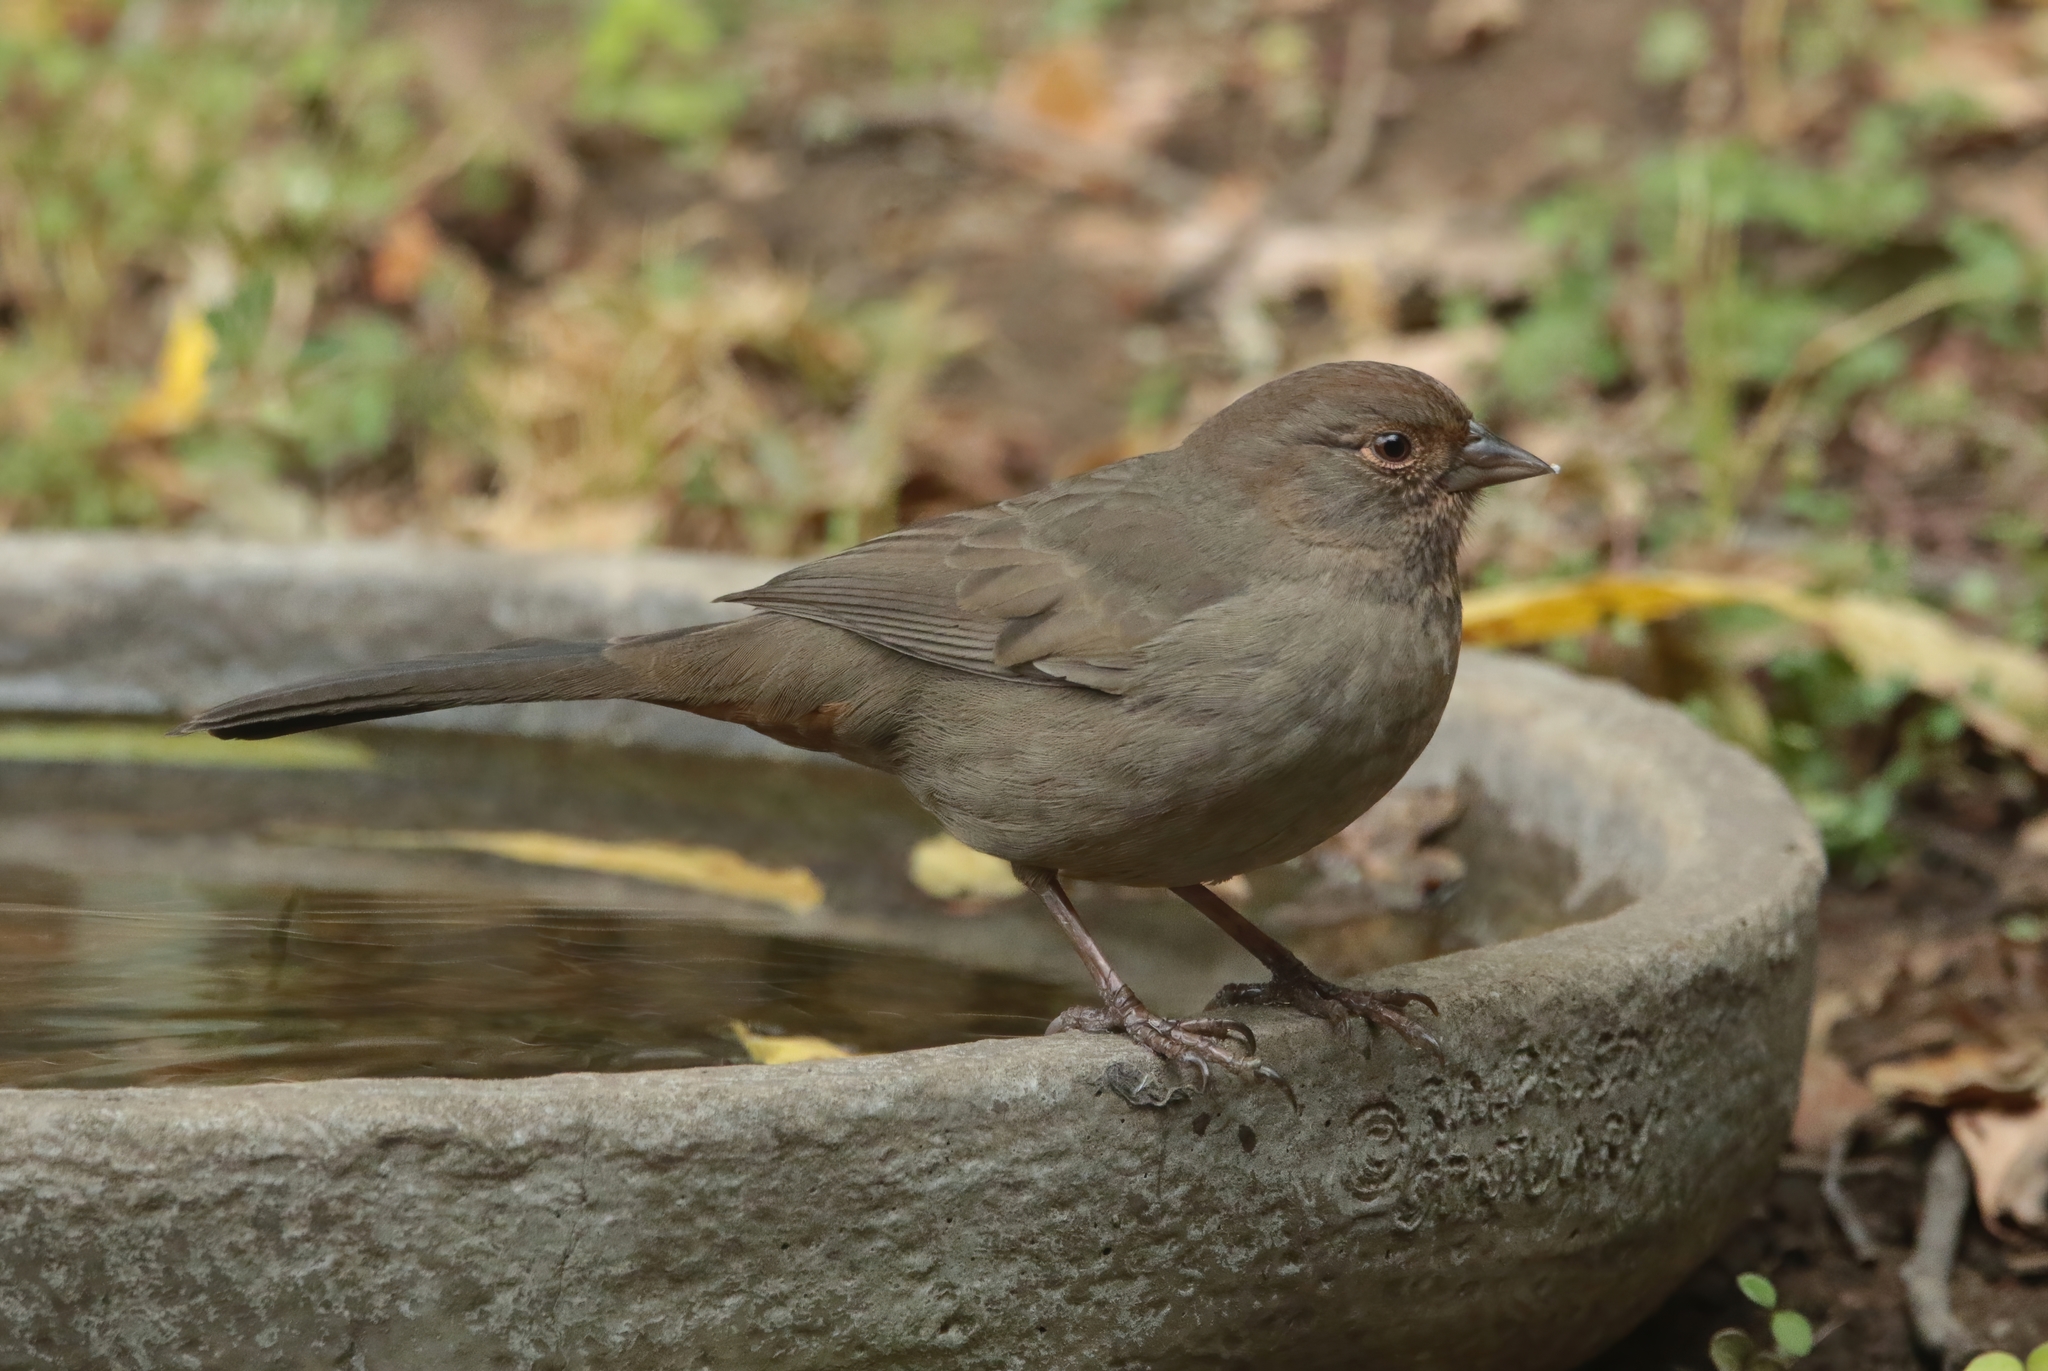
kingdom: Animalia
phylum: Chordata
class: Aves
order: Passeriformes
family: Passerellidae
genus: Melozone
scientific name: Melozone crissalis
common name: California towhee
